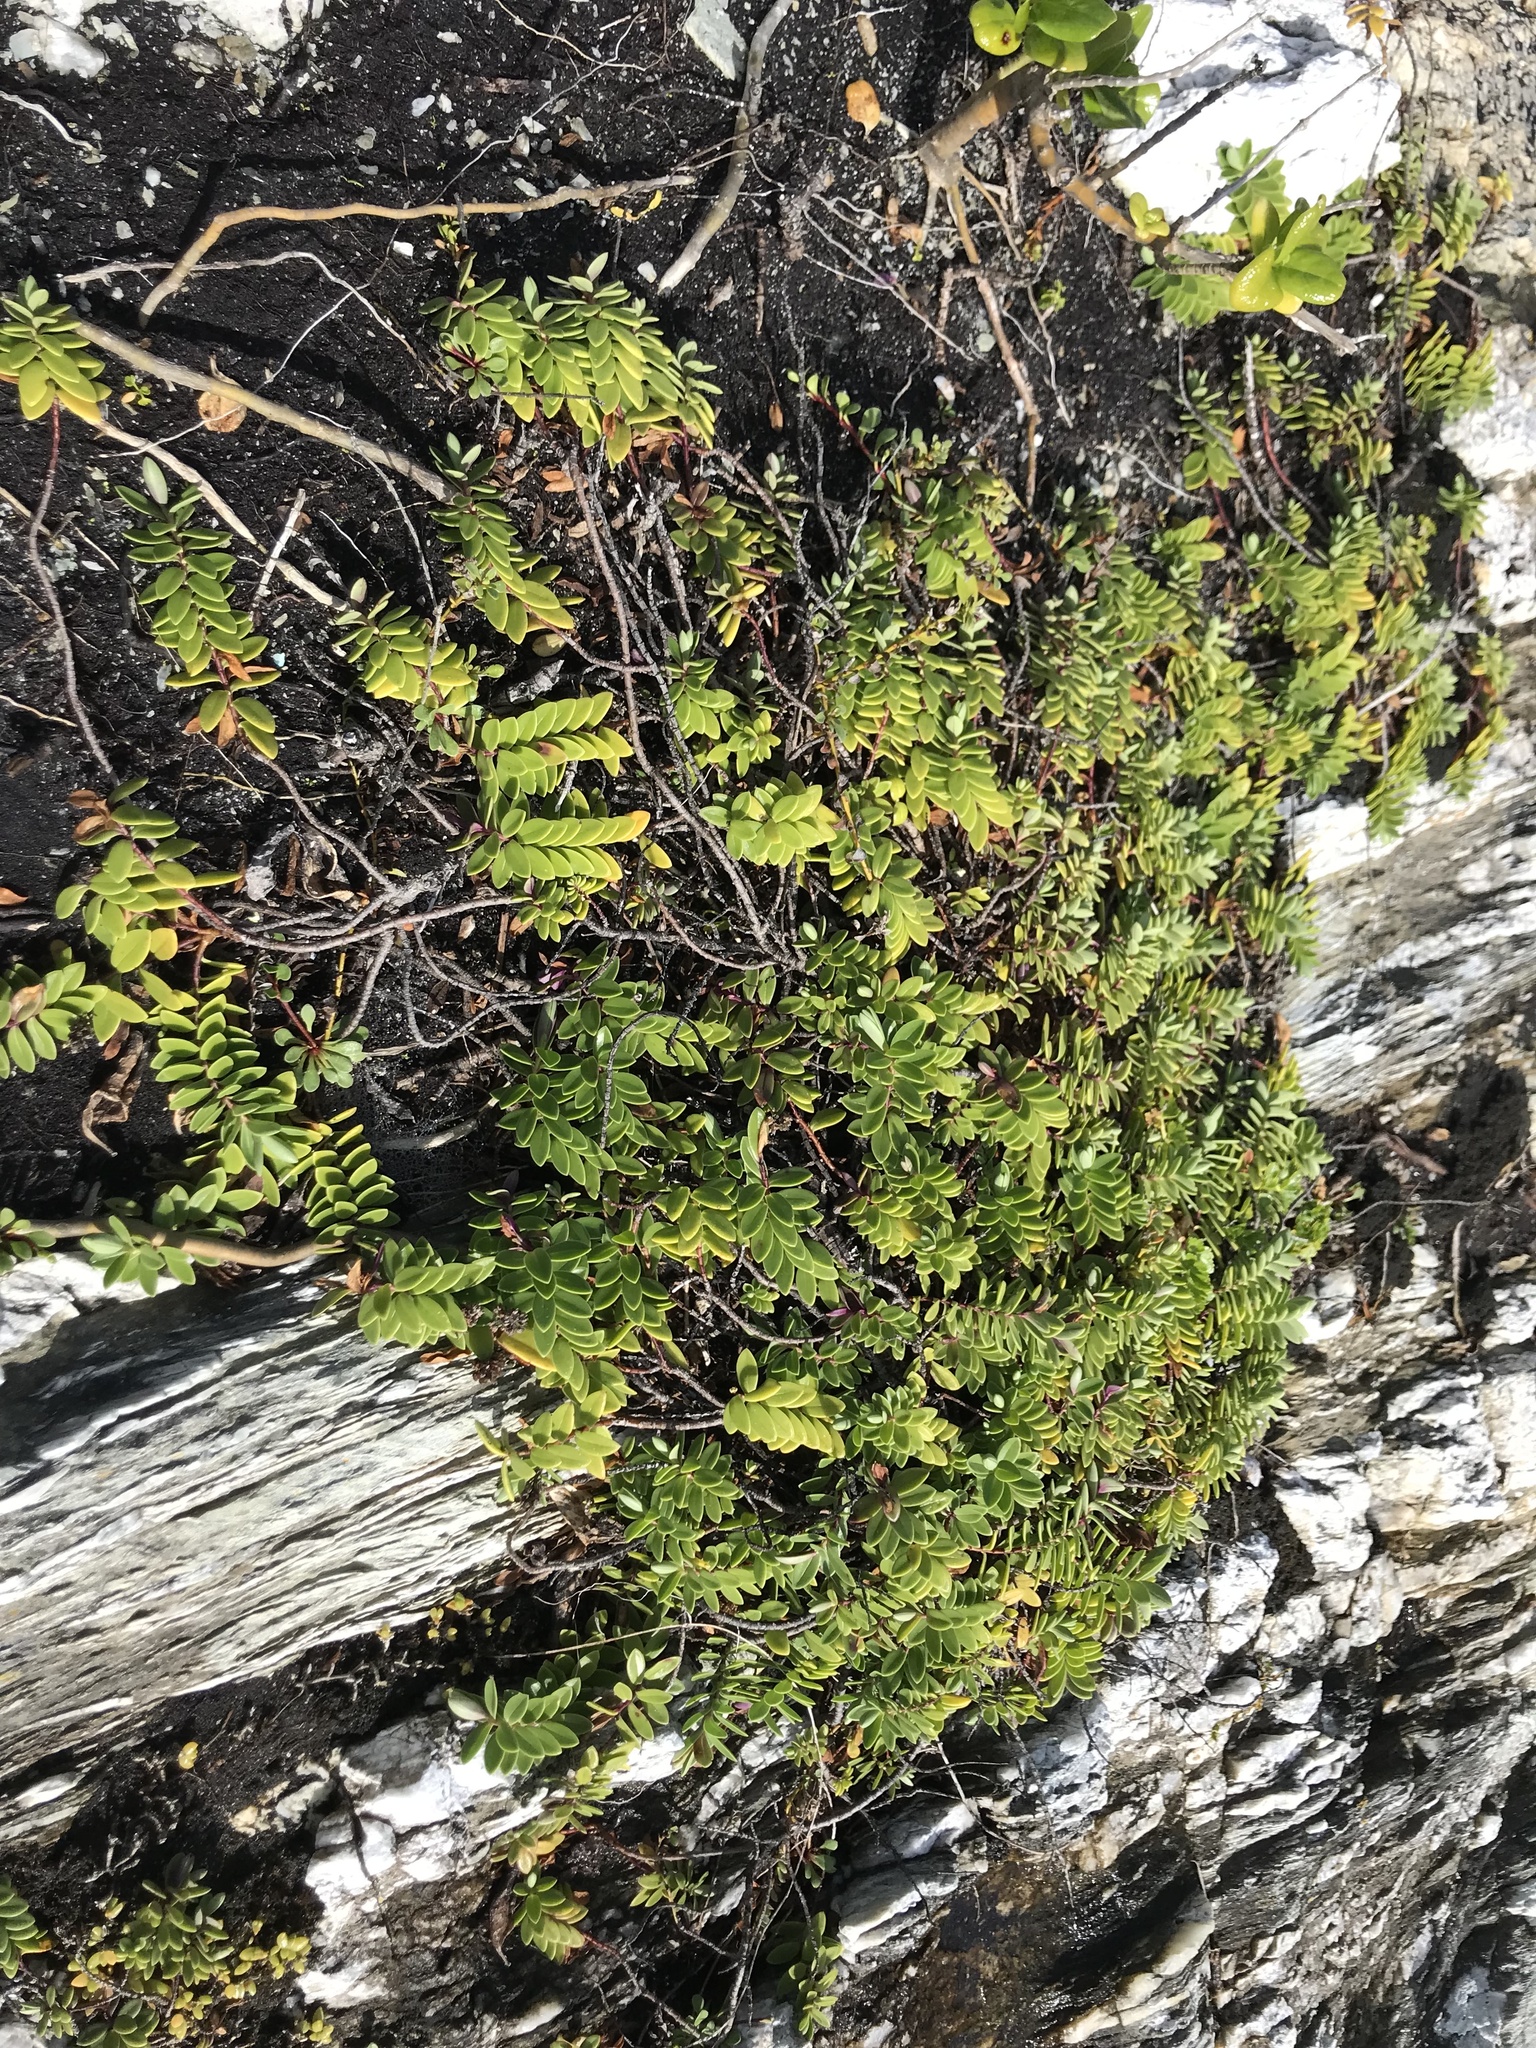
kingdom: Plantae
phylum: Tracheophyta
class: Magnoliopsida
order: Lamiales
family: Plantaginaceae
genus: Veronica
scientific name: Veronica chathamica
